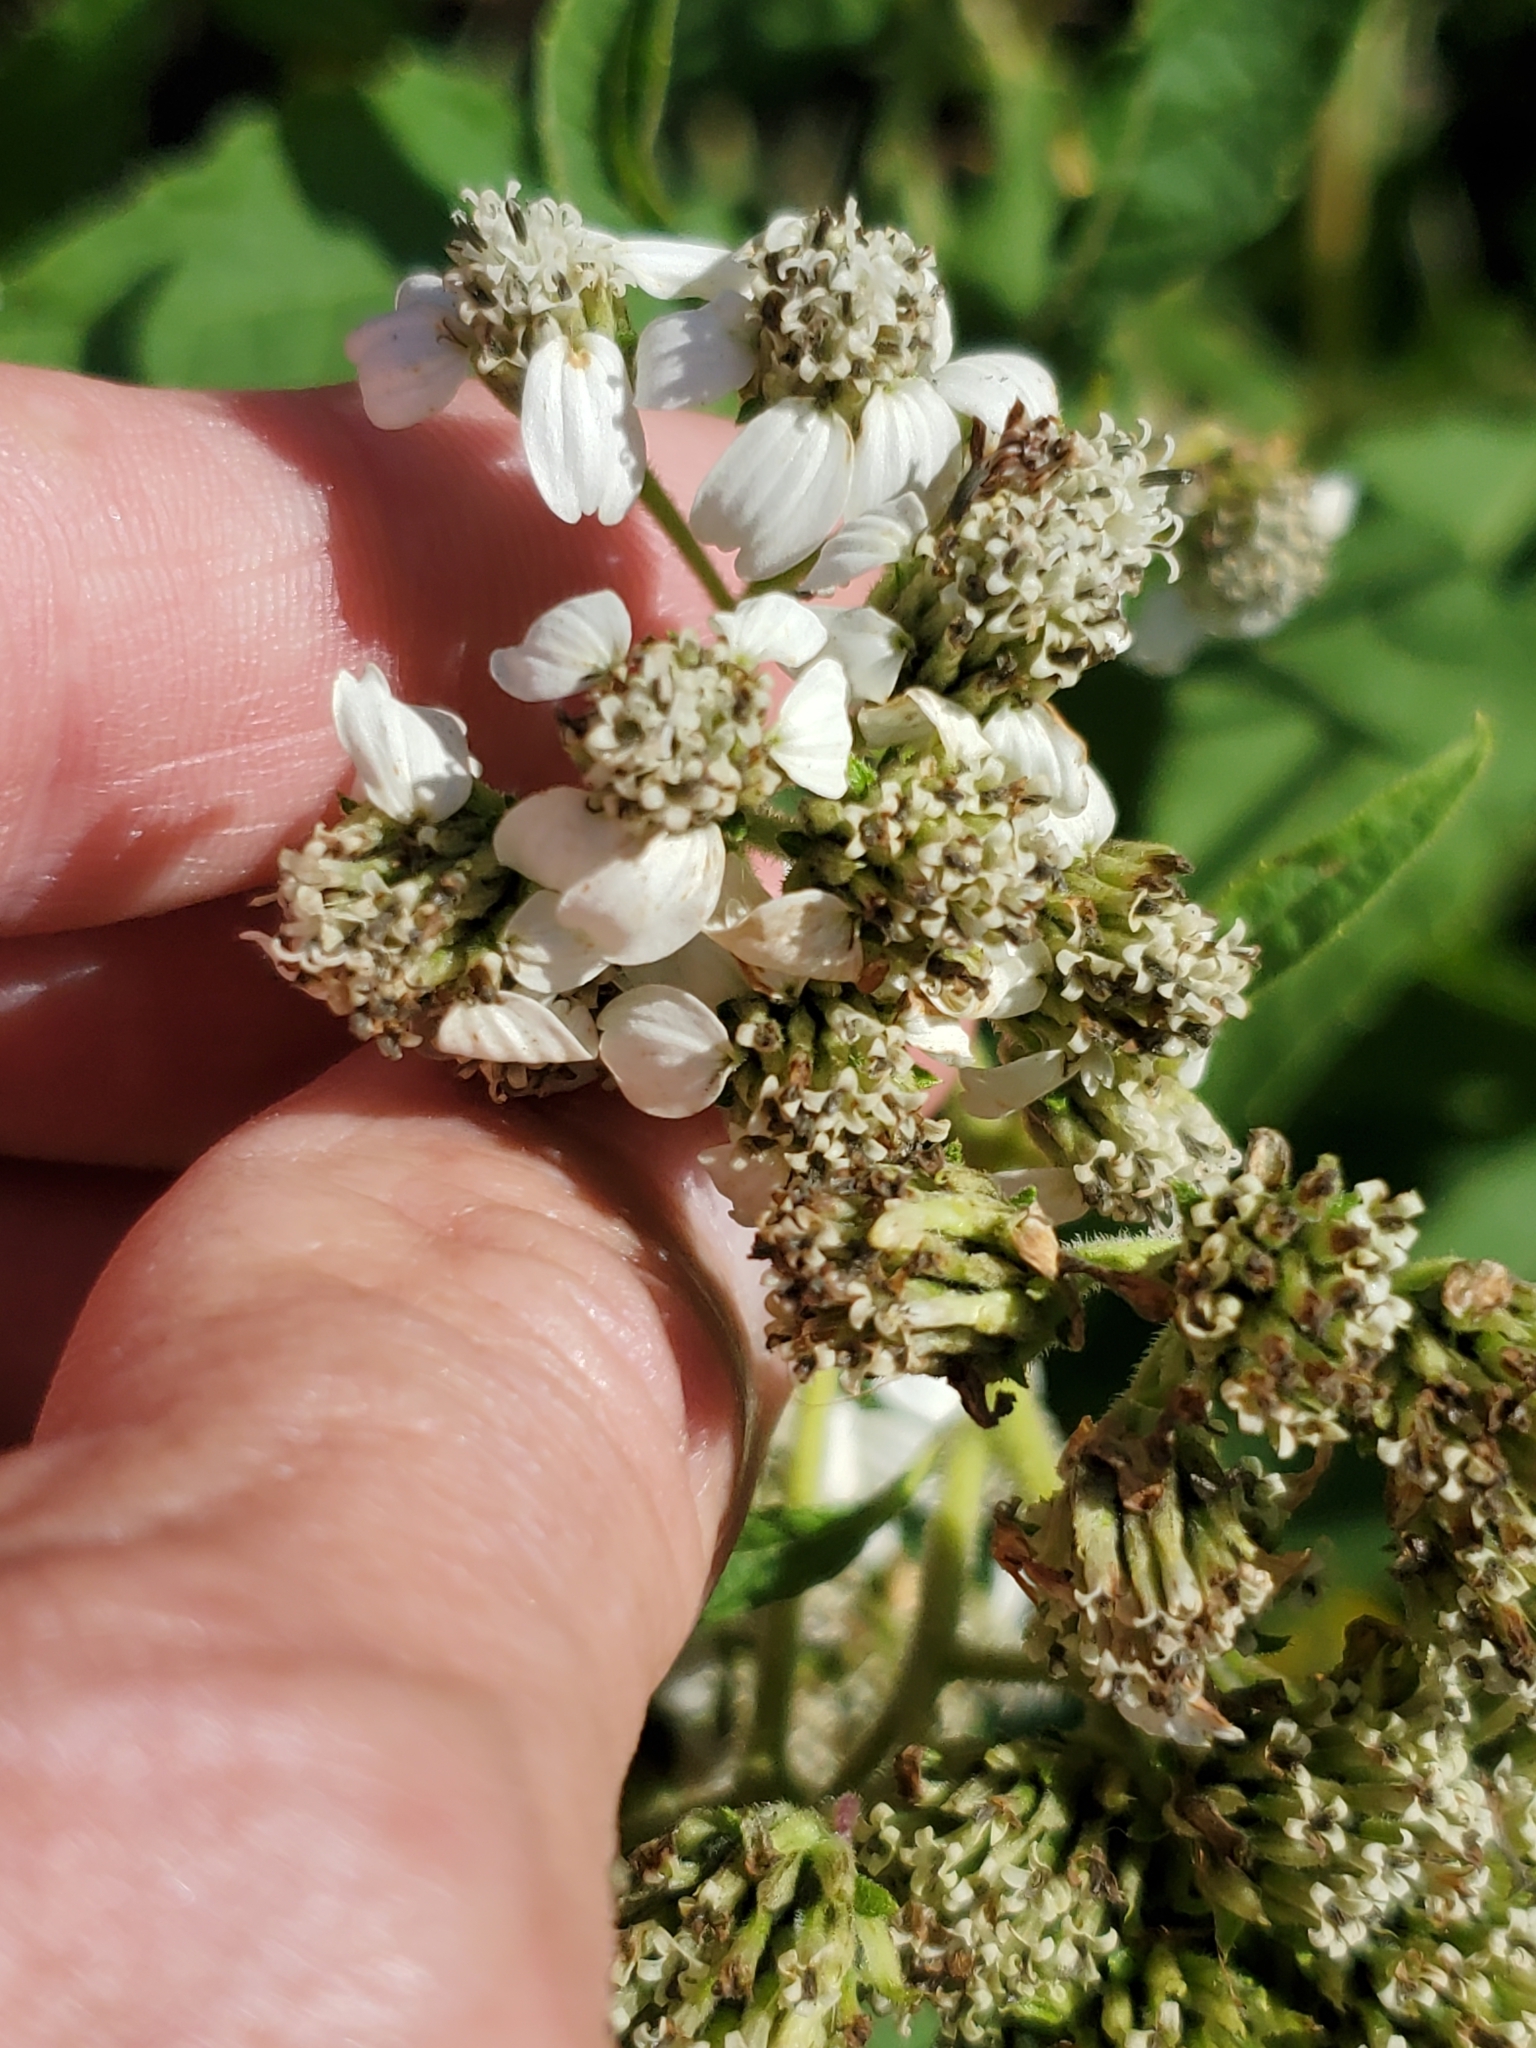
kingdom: Plantae
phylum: Tracheophyta
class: Magnoliopsida
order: Asterales
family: Asteraceae
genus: Verbesina
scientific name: Verbesina virginica
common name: Frostweed
